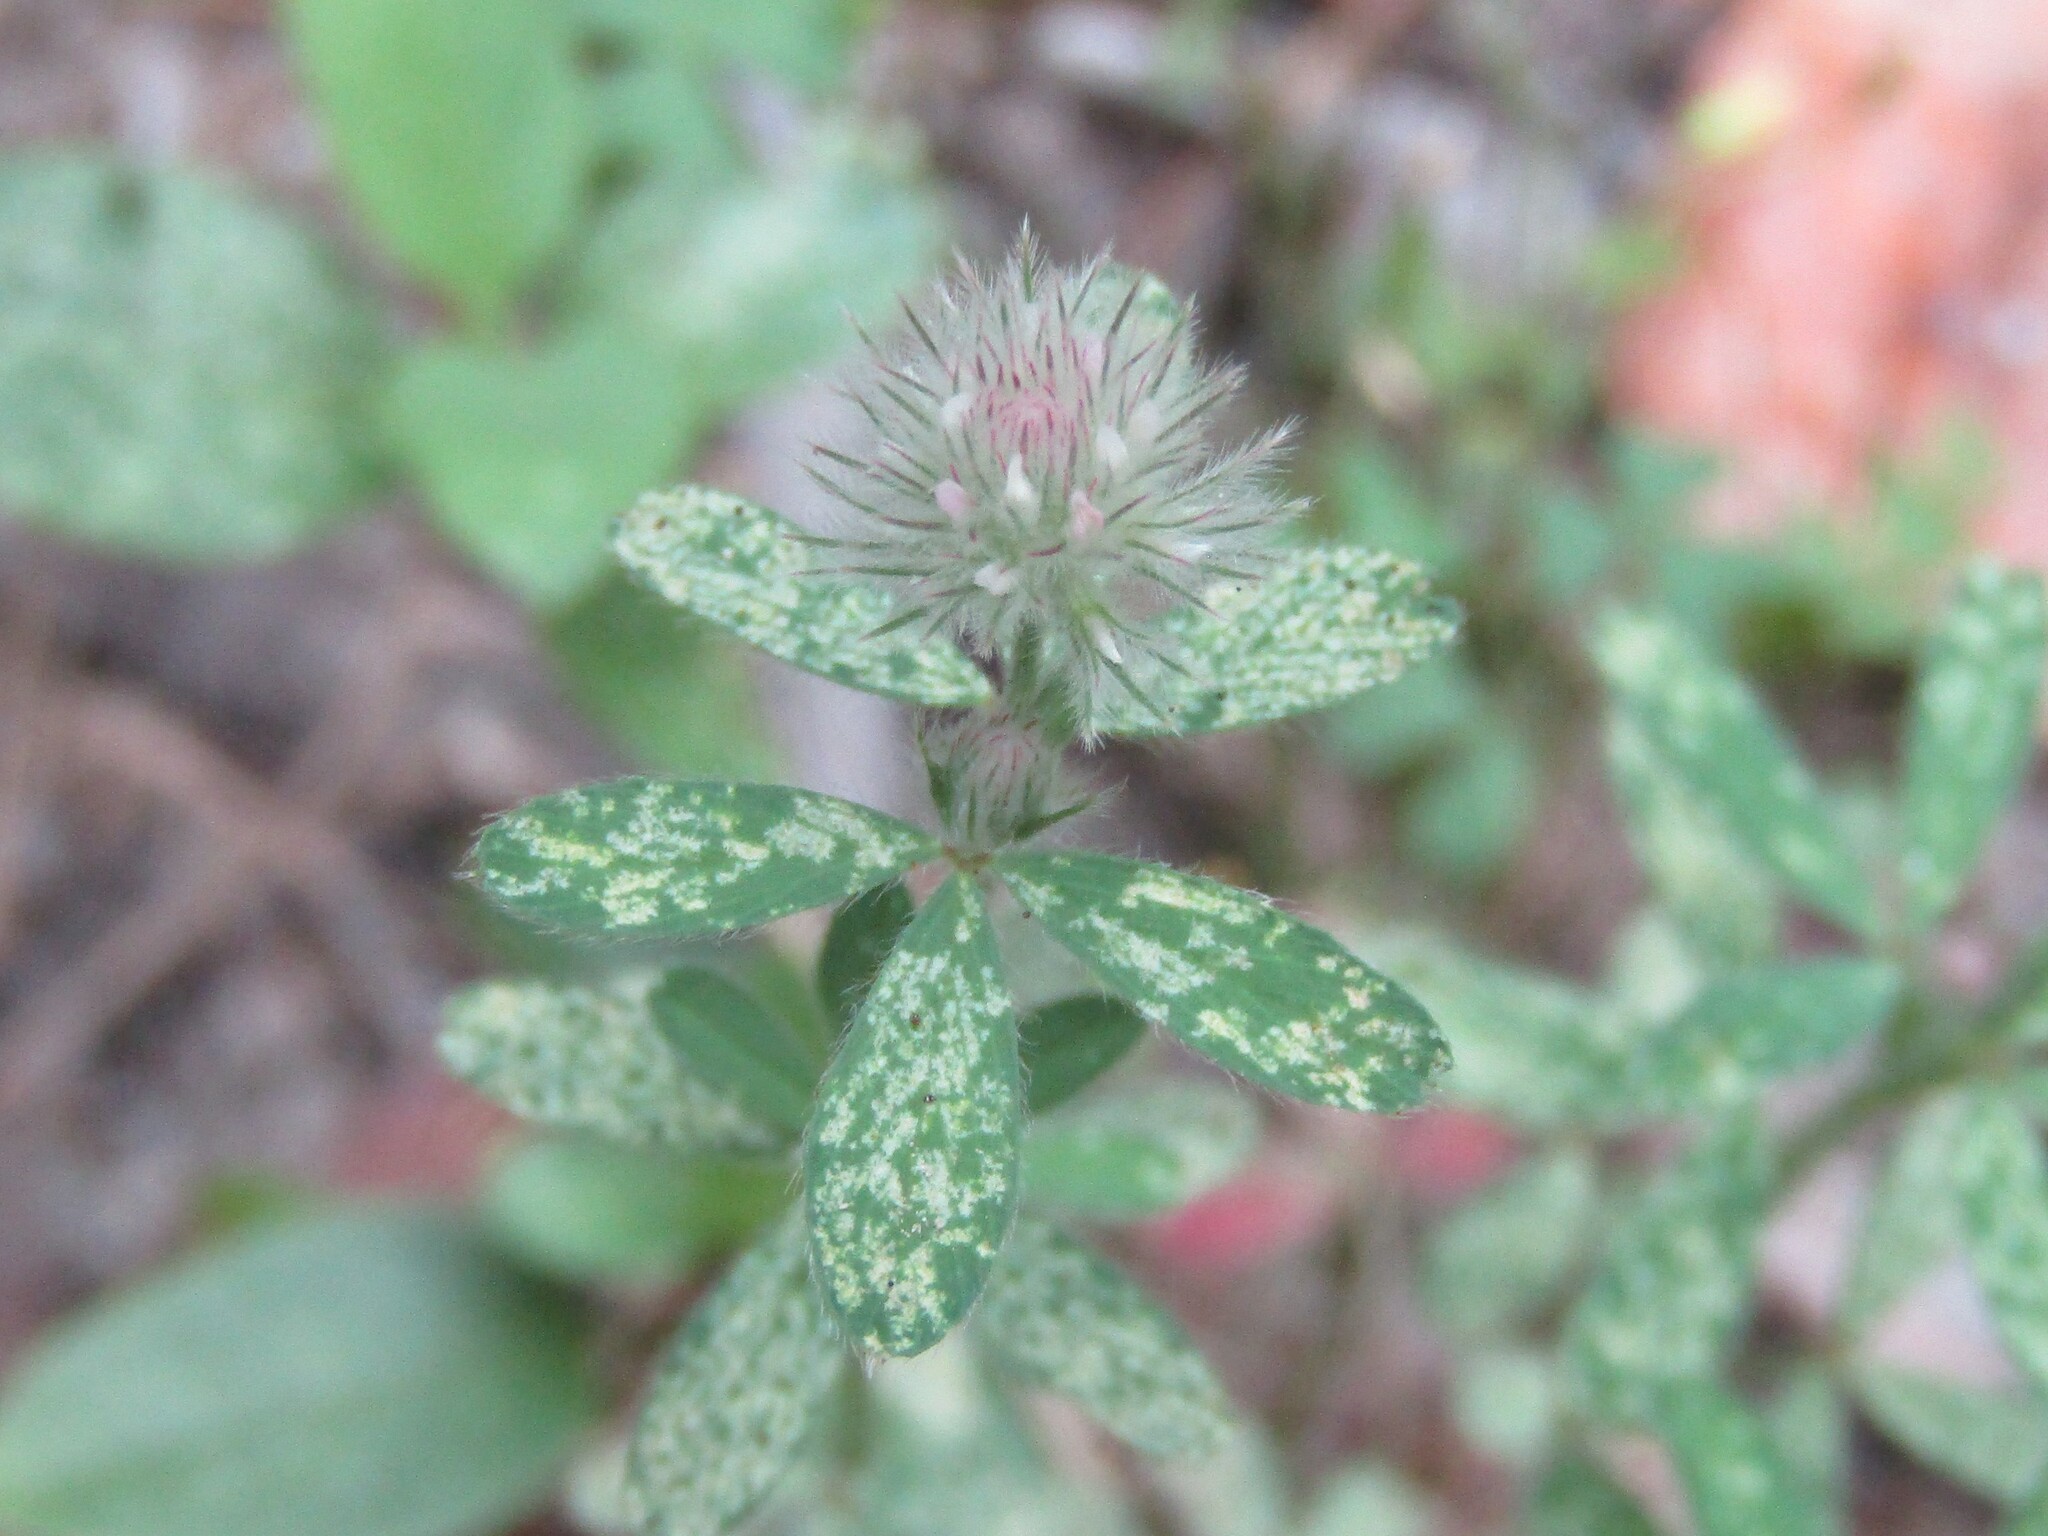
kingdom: Plantae
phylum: Tracheophyta
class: Magnoliopsida
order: Fabales
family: Fabaceae
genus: Trifolium
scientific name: Trifolium arvense
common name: Hare's-foot clover
